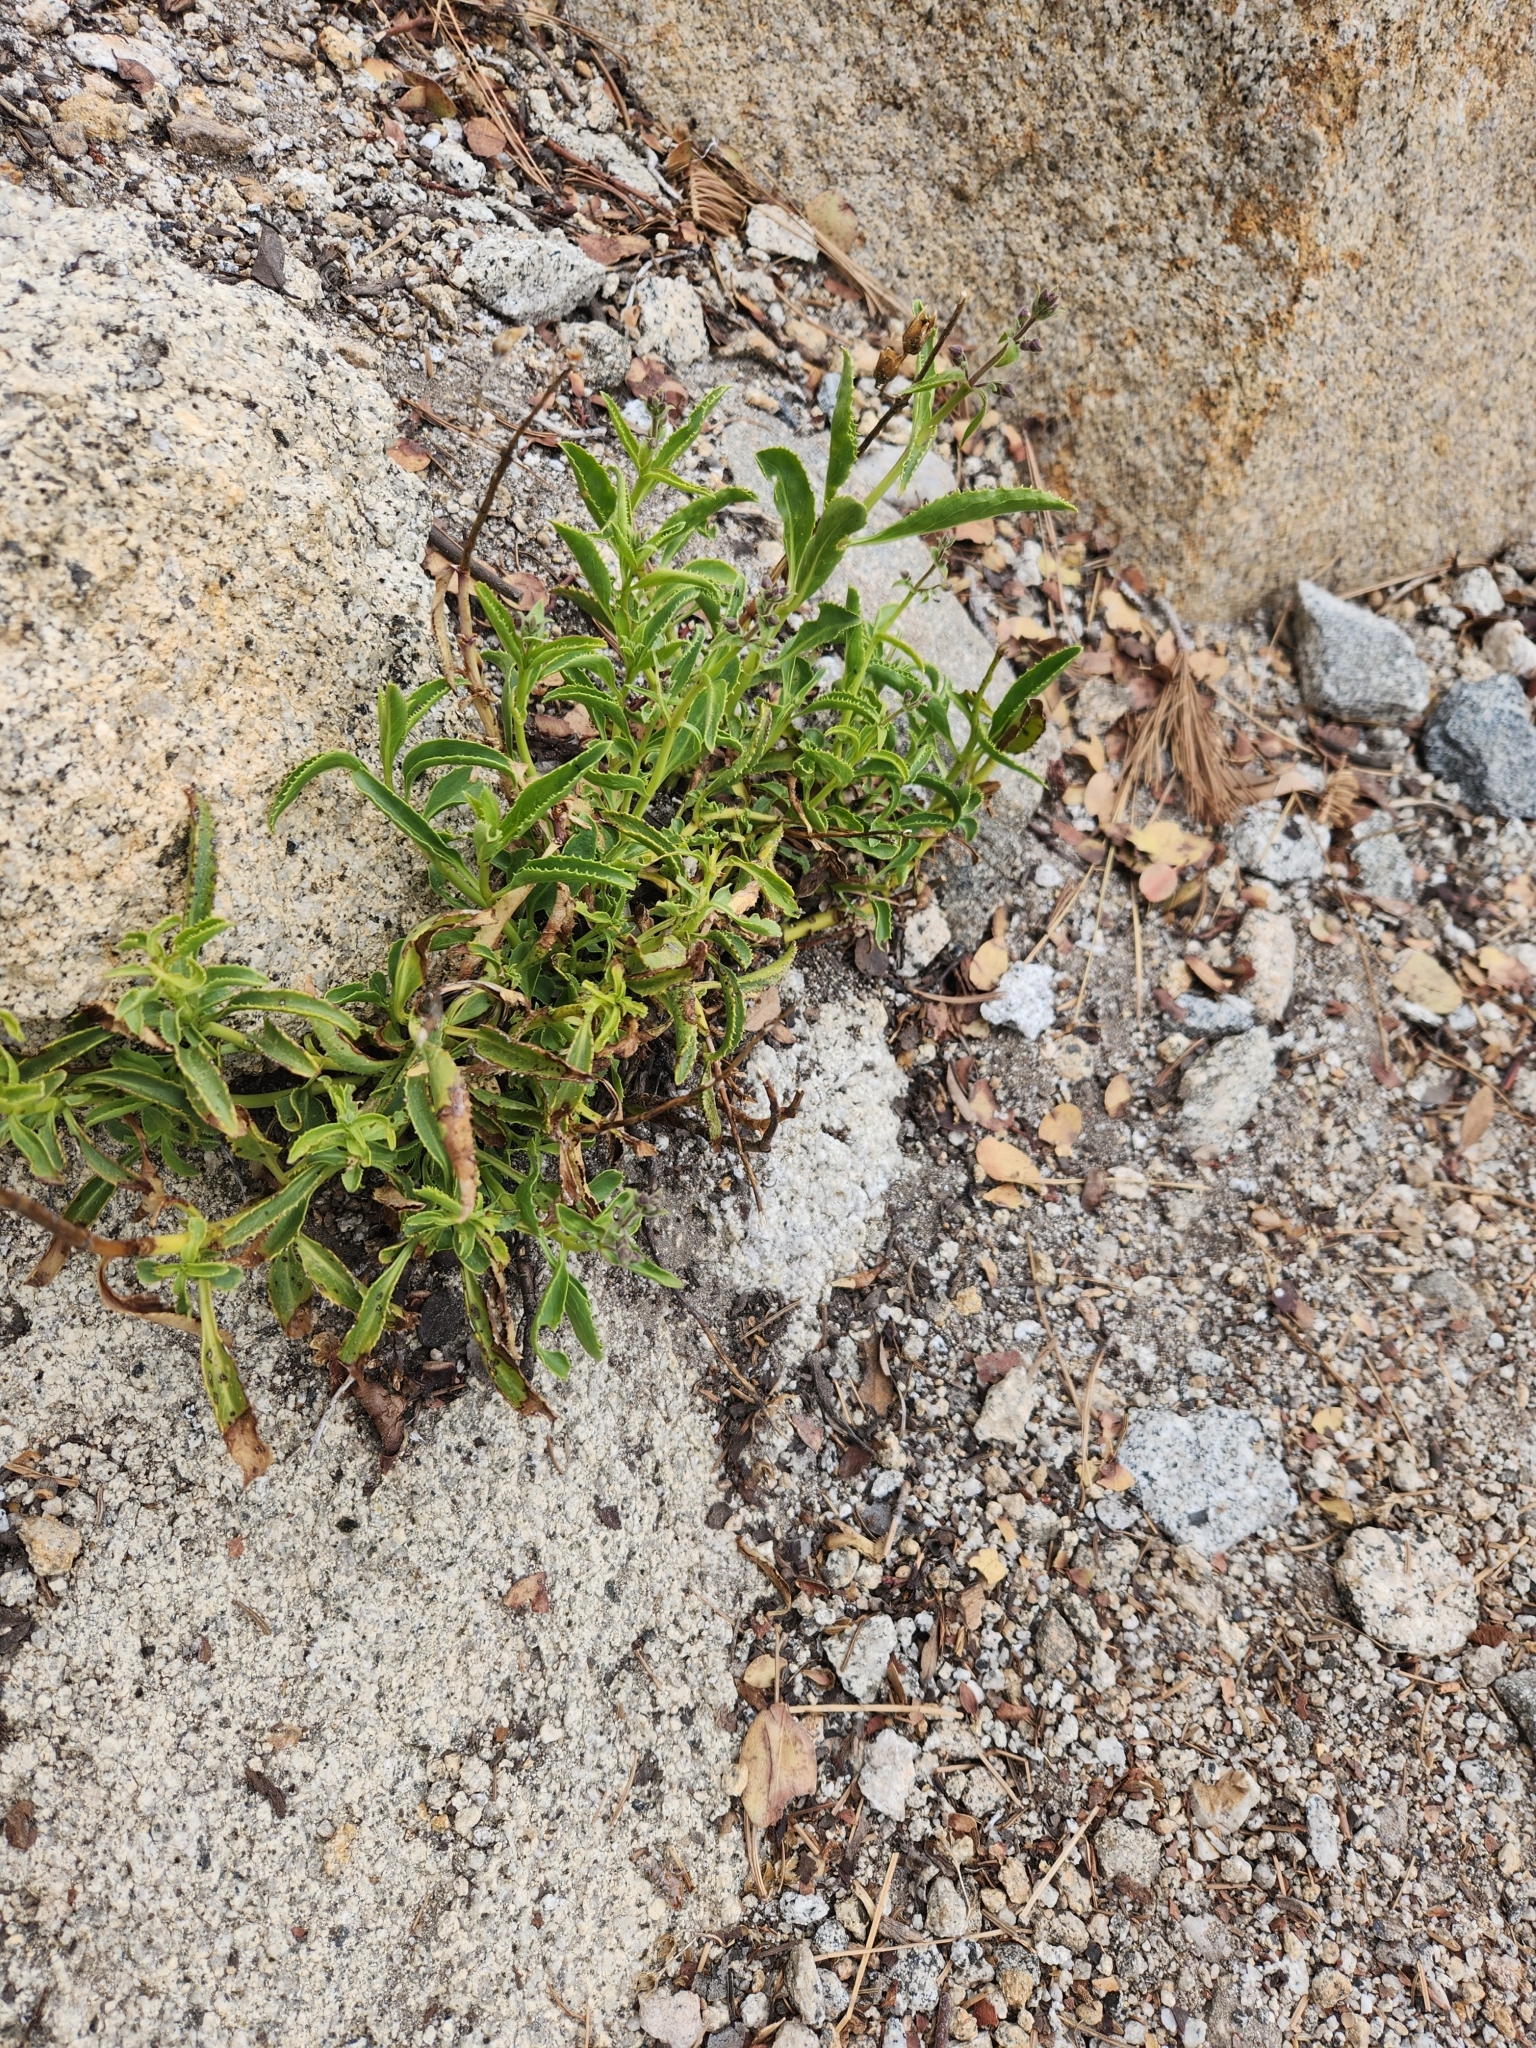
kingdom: Plantae
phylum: Tracheophyta
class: Magnoliopsida
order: Lamiales
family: Plantaginaceae
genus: Penstemon
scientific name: Penstemon grinnellii
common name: Grinnell's beardtongue
